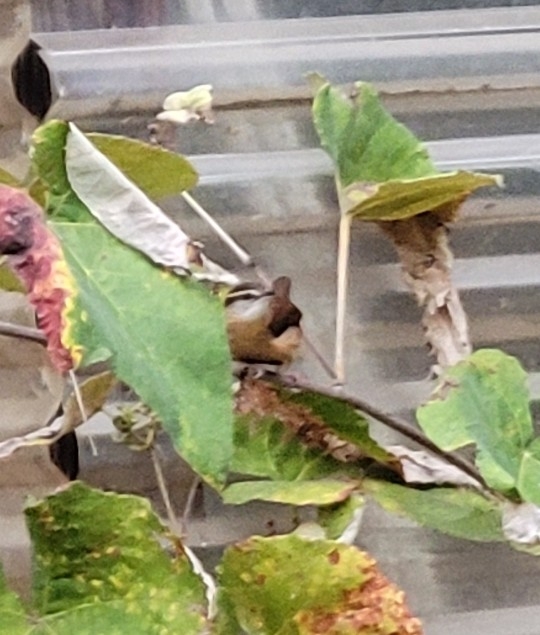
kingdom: Animalia
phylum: Chordata
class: Aves
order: Passeriformes
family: Troglodytidae
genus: Thryothorus
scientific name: Thryothorus ludovicianus
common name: Carolina wren
